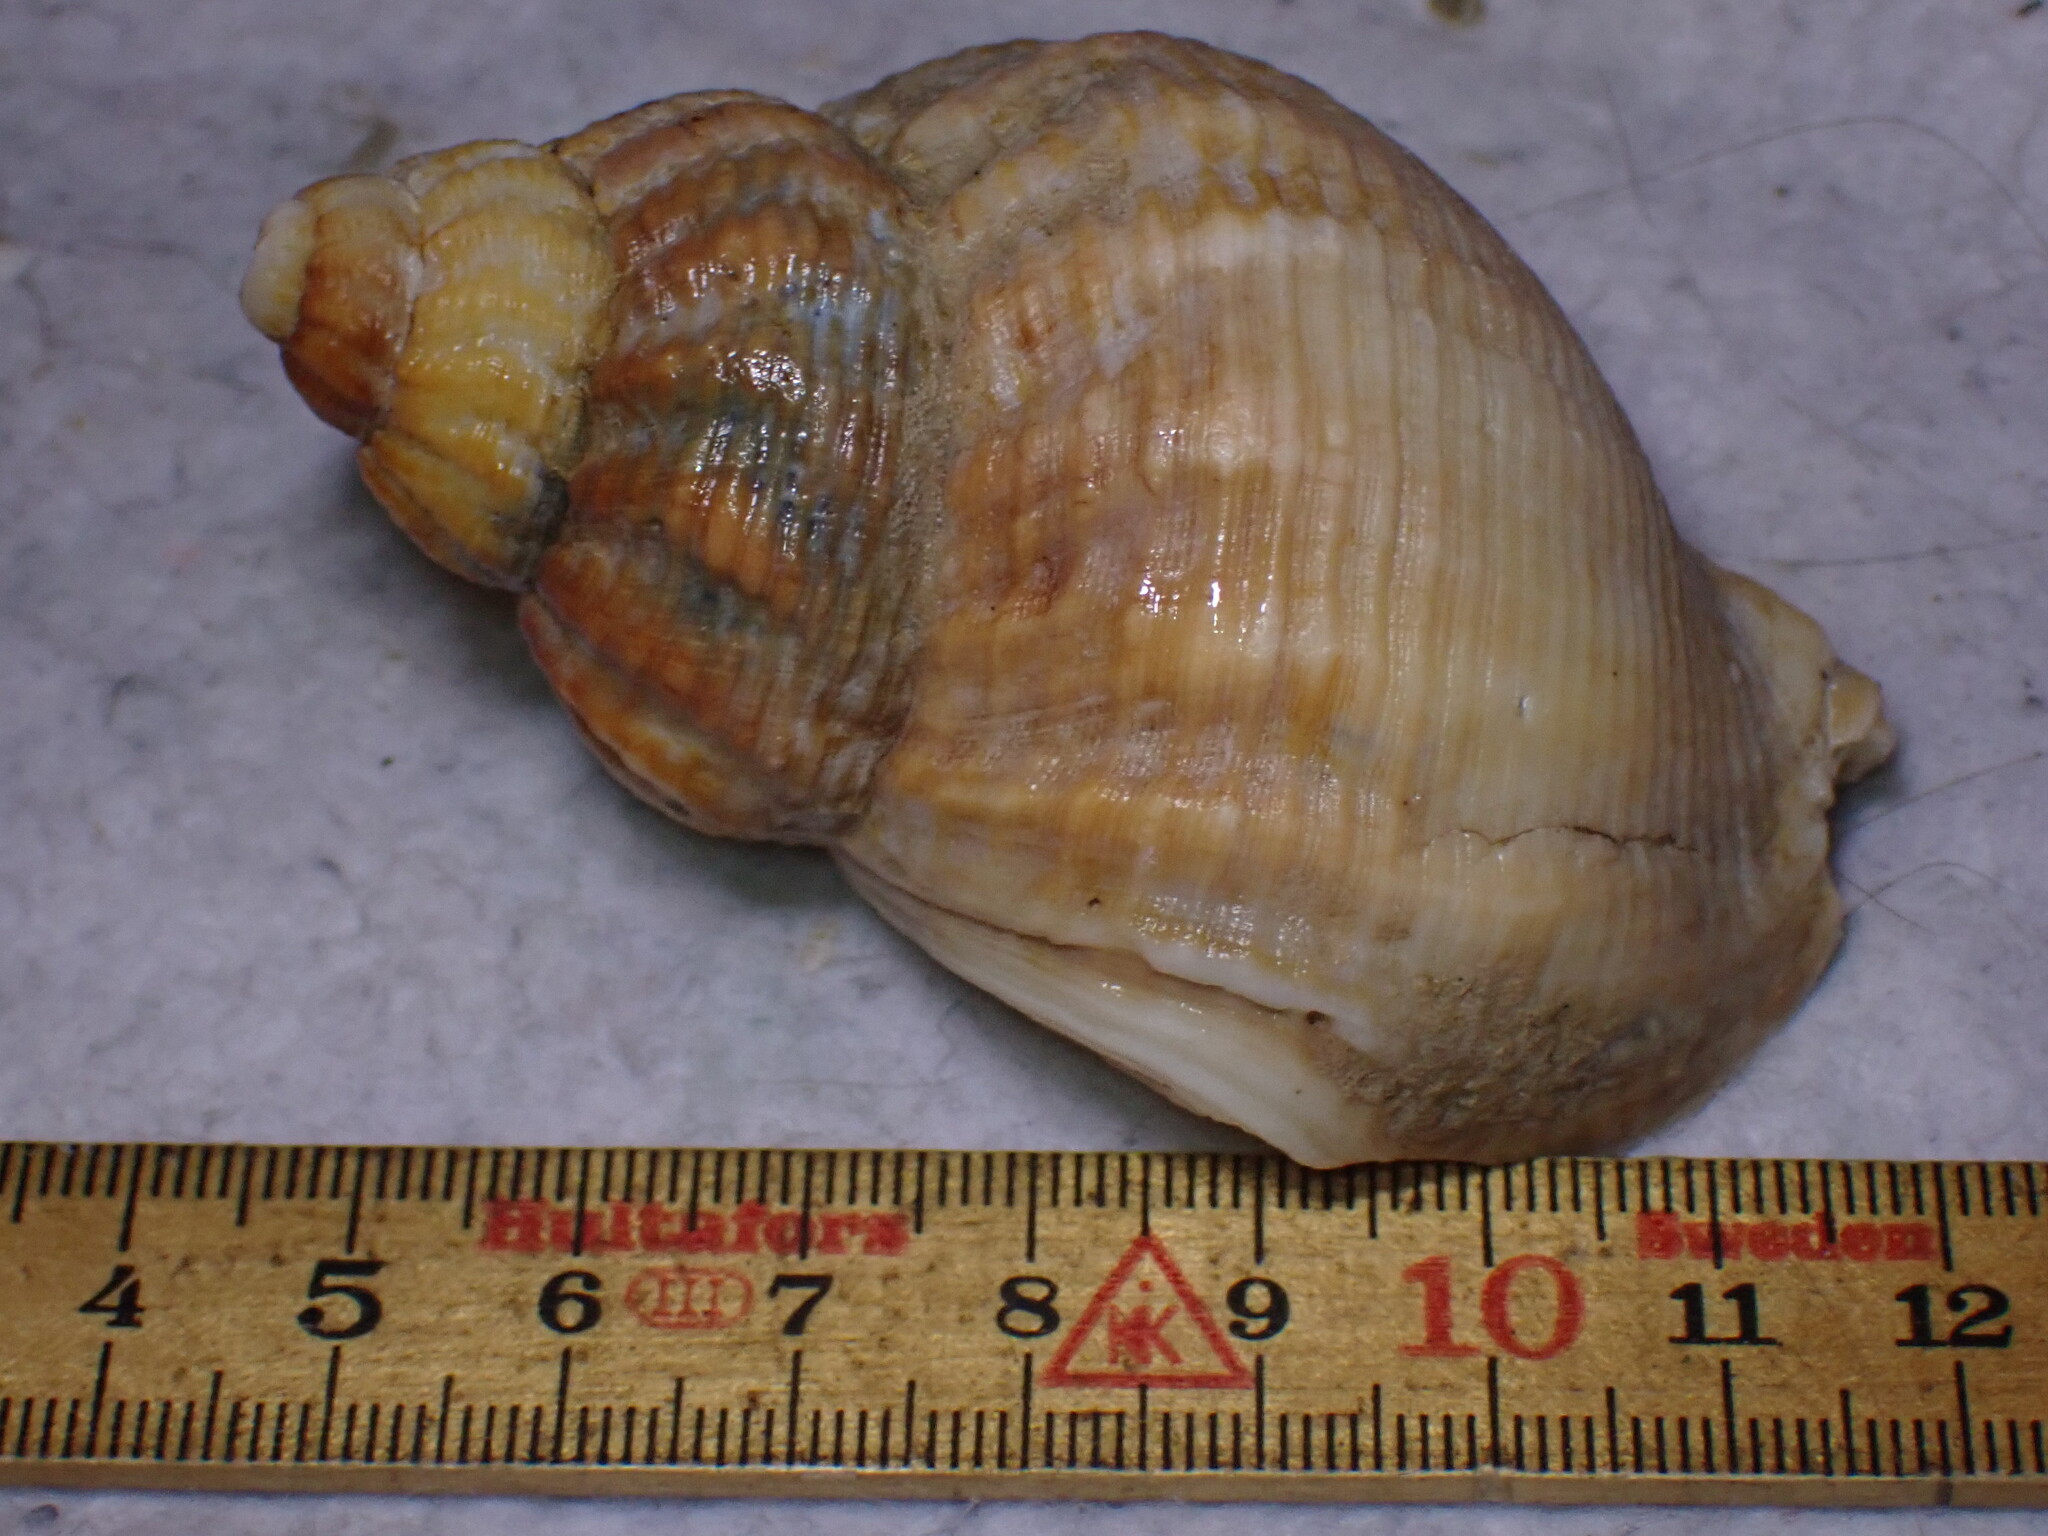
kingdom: Animalia
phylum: Mollusca
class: Gastropoda
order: Neogastropoda
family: Buccinidae
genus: Buccinum
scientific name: Buccinum undatum
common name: Common whelk
